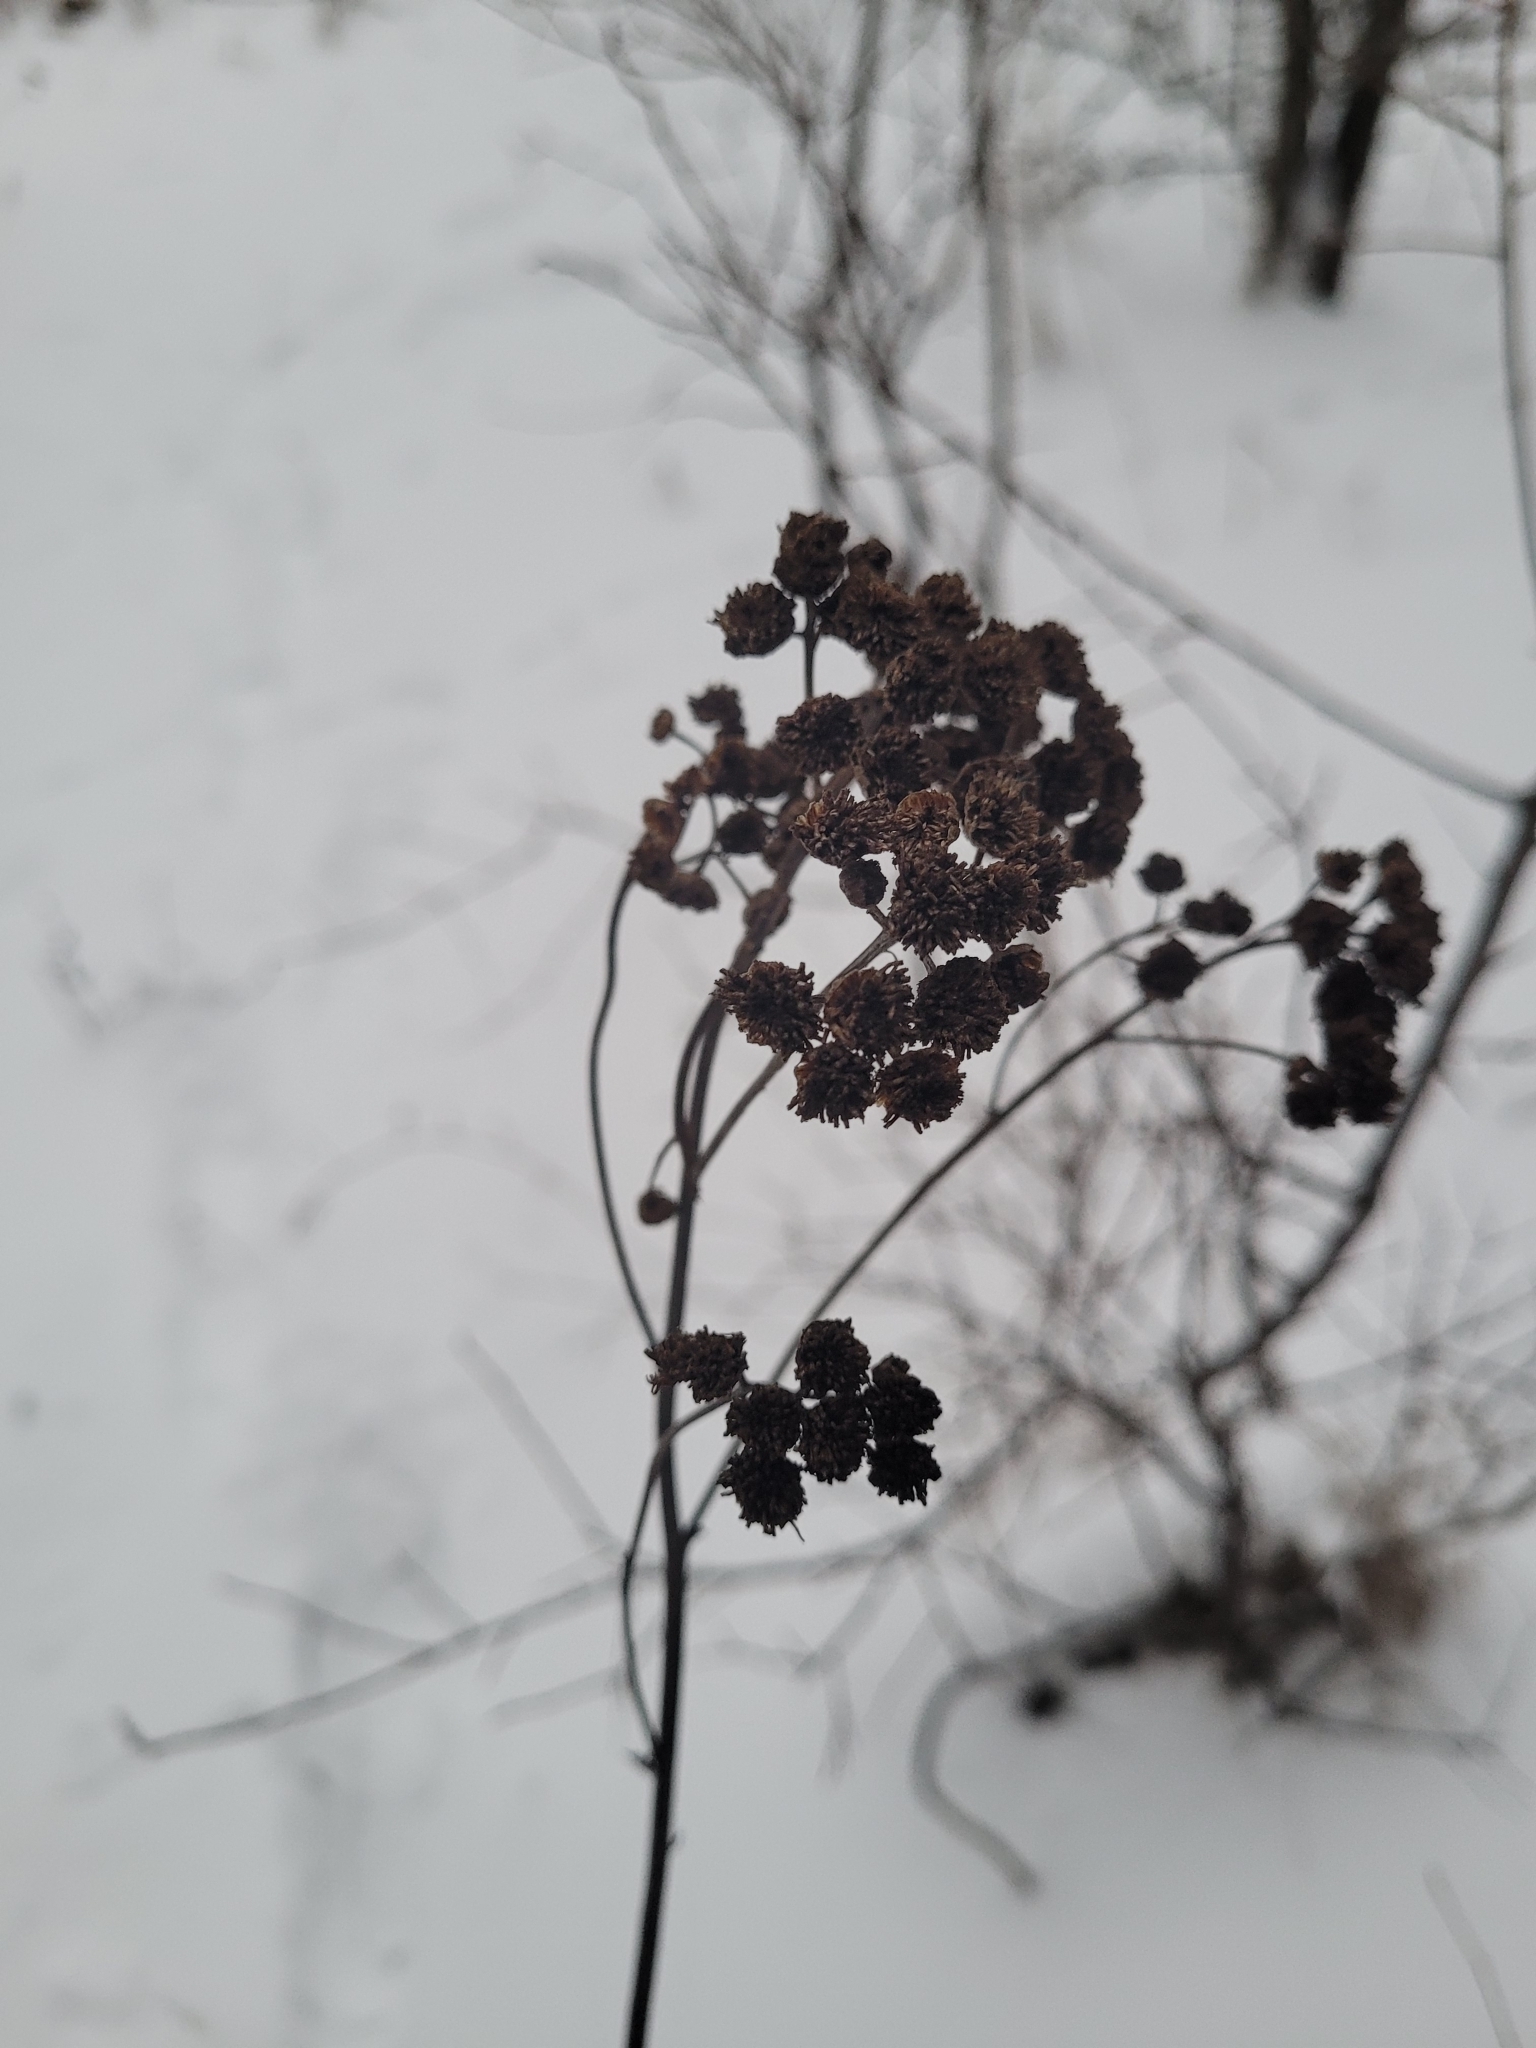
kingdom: Plantae
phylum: Tracheophyta
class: Magnoliopsida
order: Asterales
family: Asteraceae
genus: Tanacetum
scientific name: Tanacetum vulgare
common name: Common tansy
